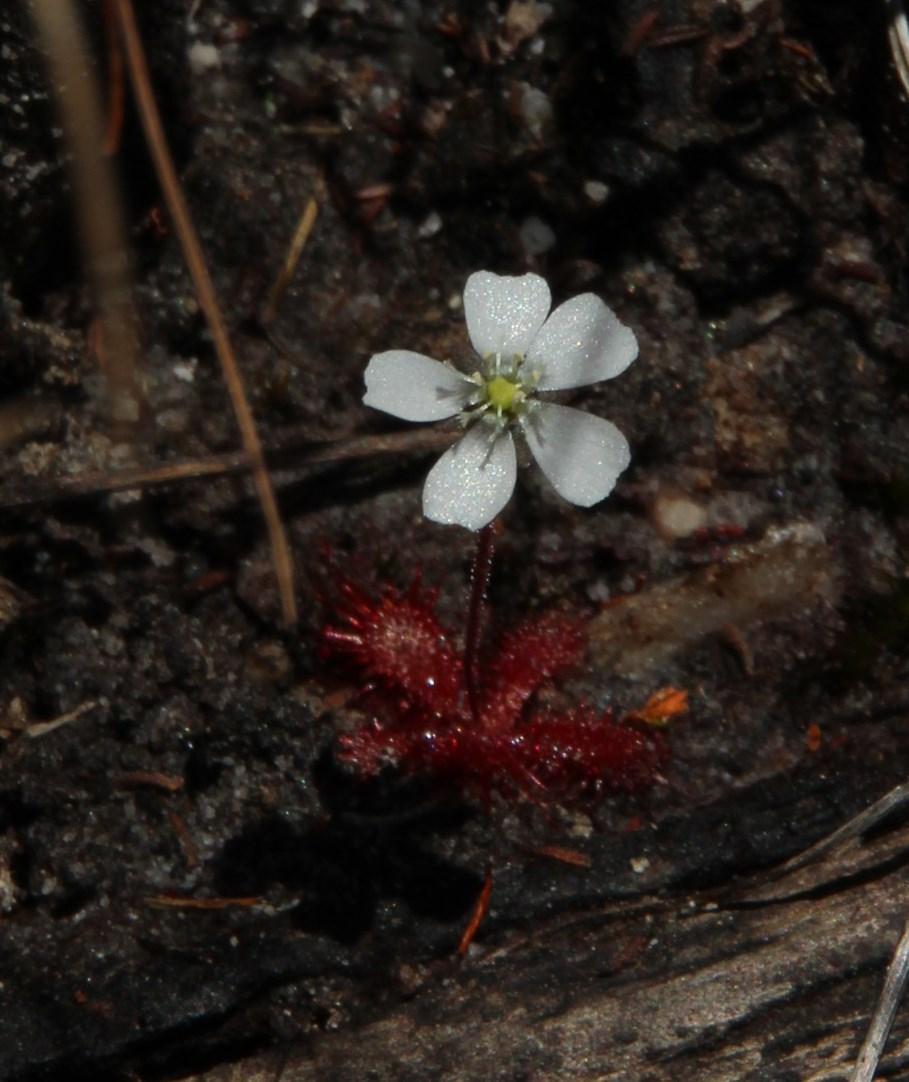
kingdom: Plantae
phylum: Tracheophyta
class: Magnoliopsida
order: Caryophyllales
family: Droseraceae
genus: Drosera
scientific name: Drosera trinervia
